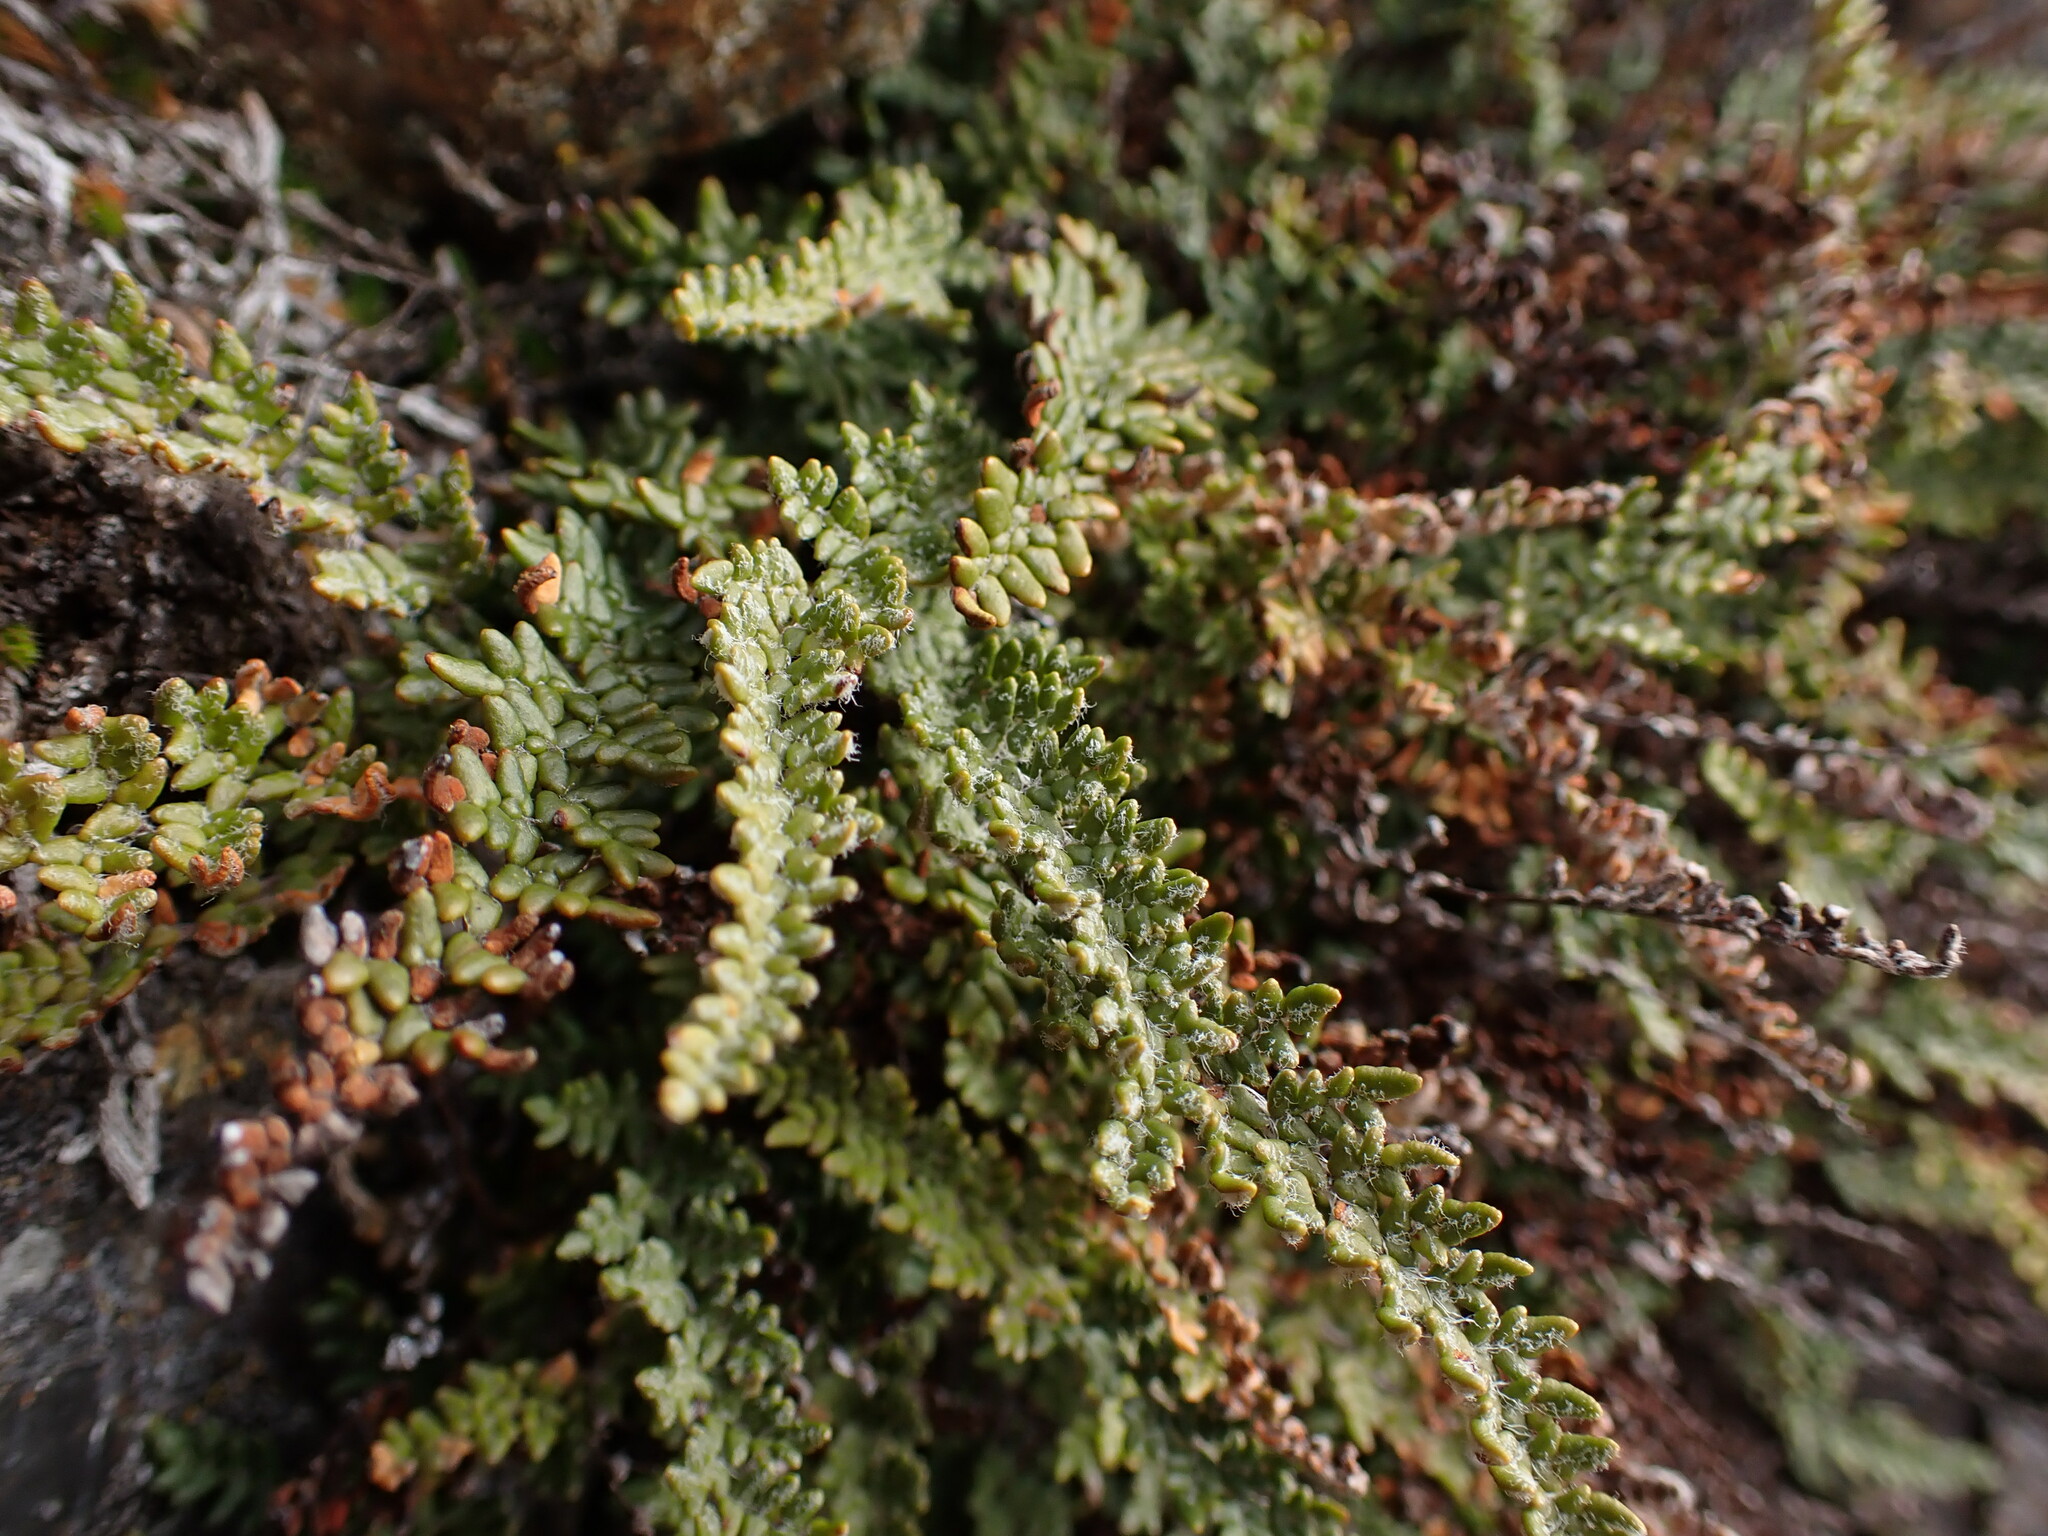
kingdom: Plantae
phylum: Tracheophyta
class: Polypodiopsida
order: Polypodiales
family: Pteridaceae
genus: Myriopteris
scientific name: Myriopteris gracillima
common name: Lace fern
